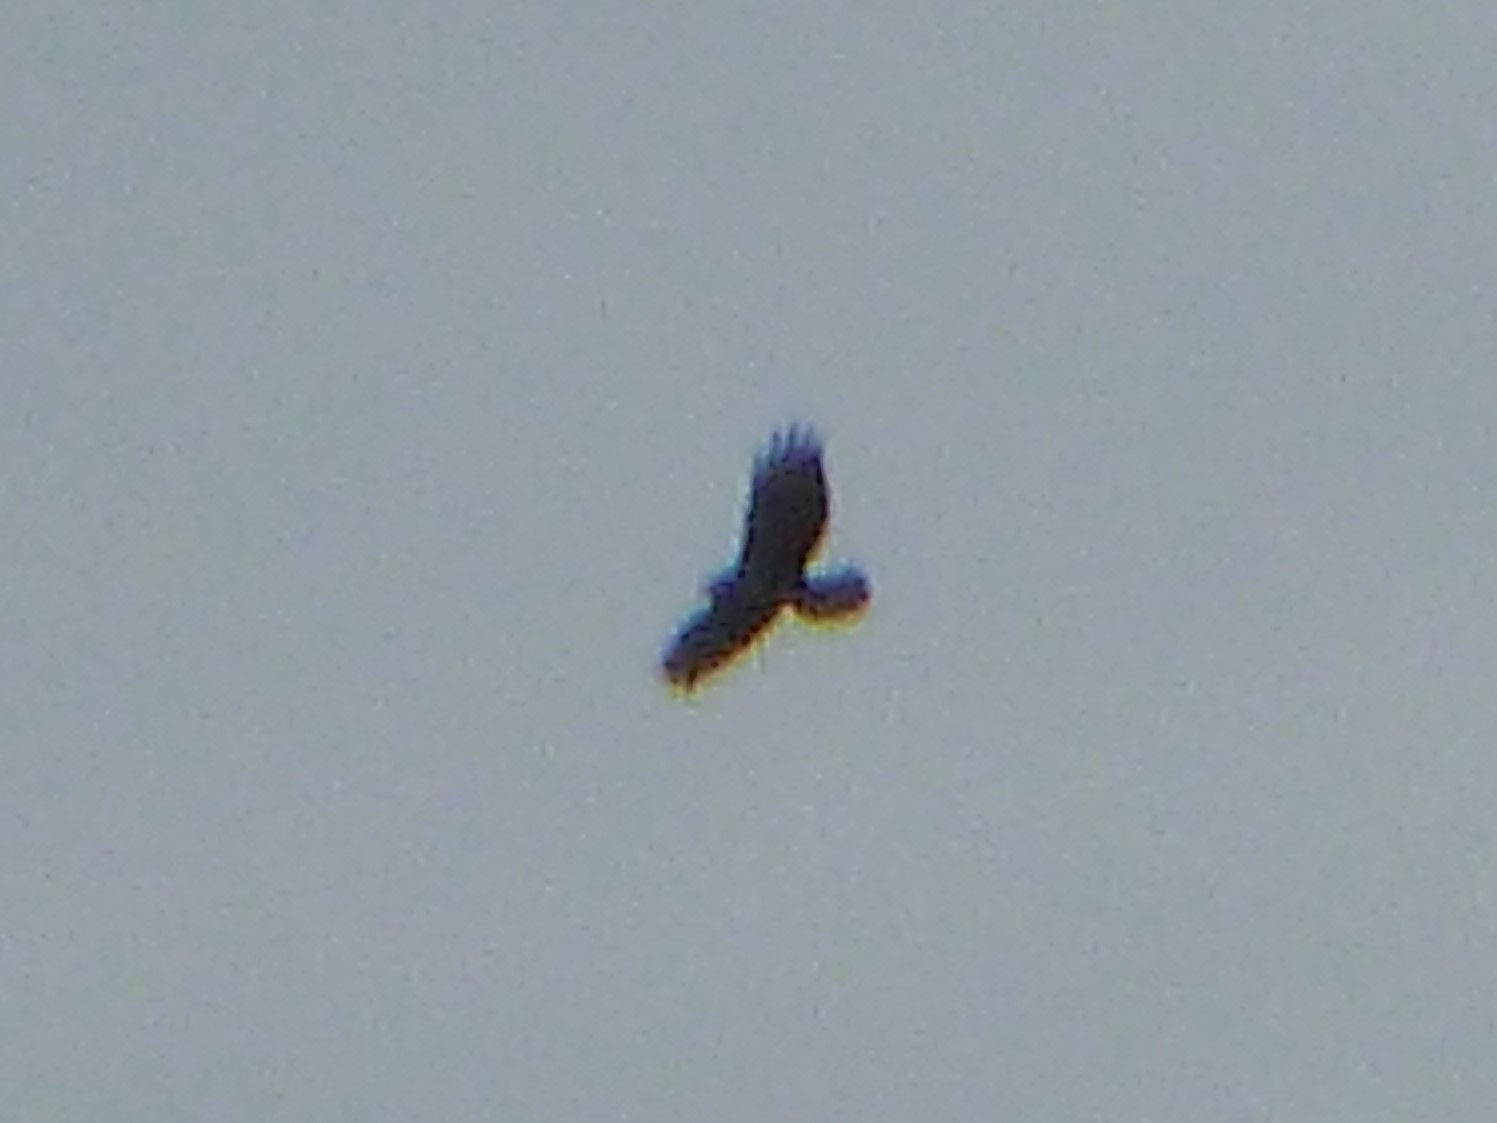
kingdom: Animalia
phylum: Chordata
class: Aves
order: Accipitriformes
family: Accipitridae
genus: Buteo
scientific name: Buteo buteo
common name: Common buzzard
